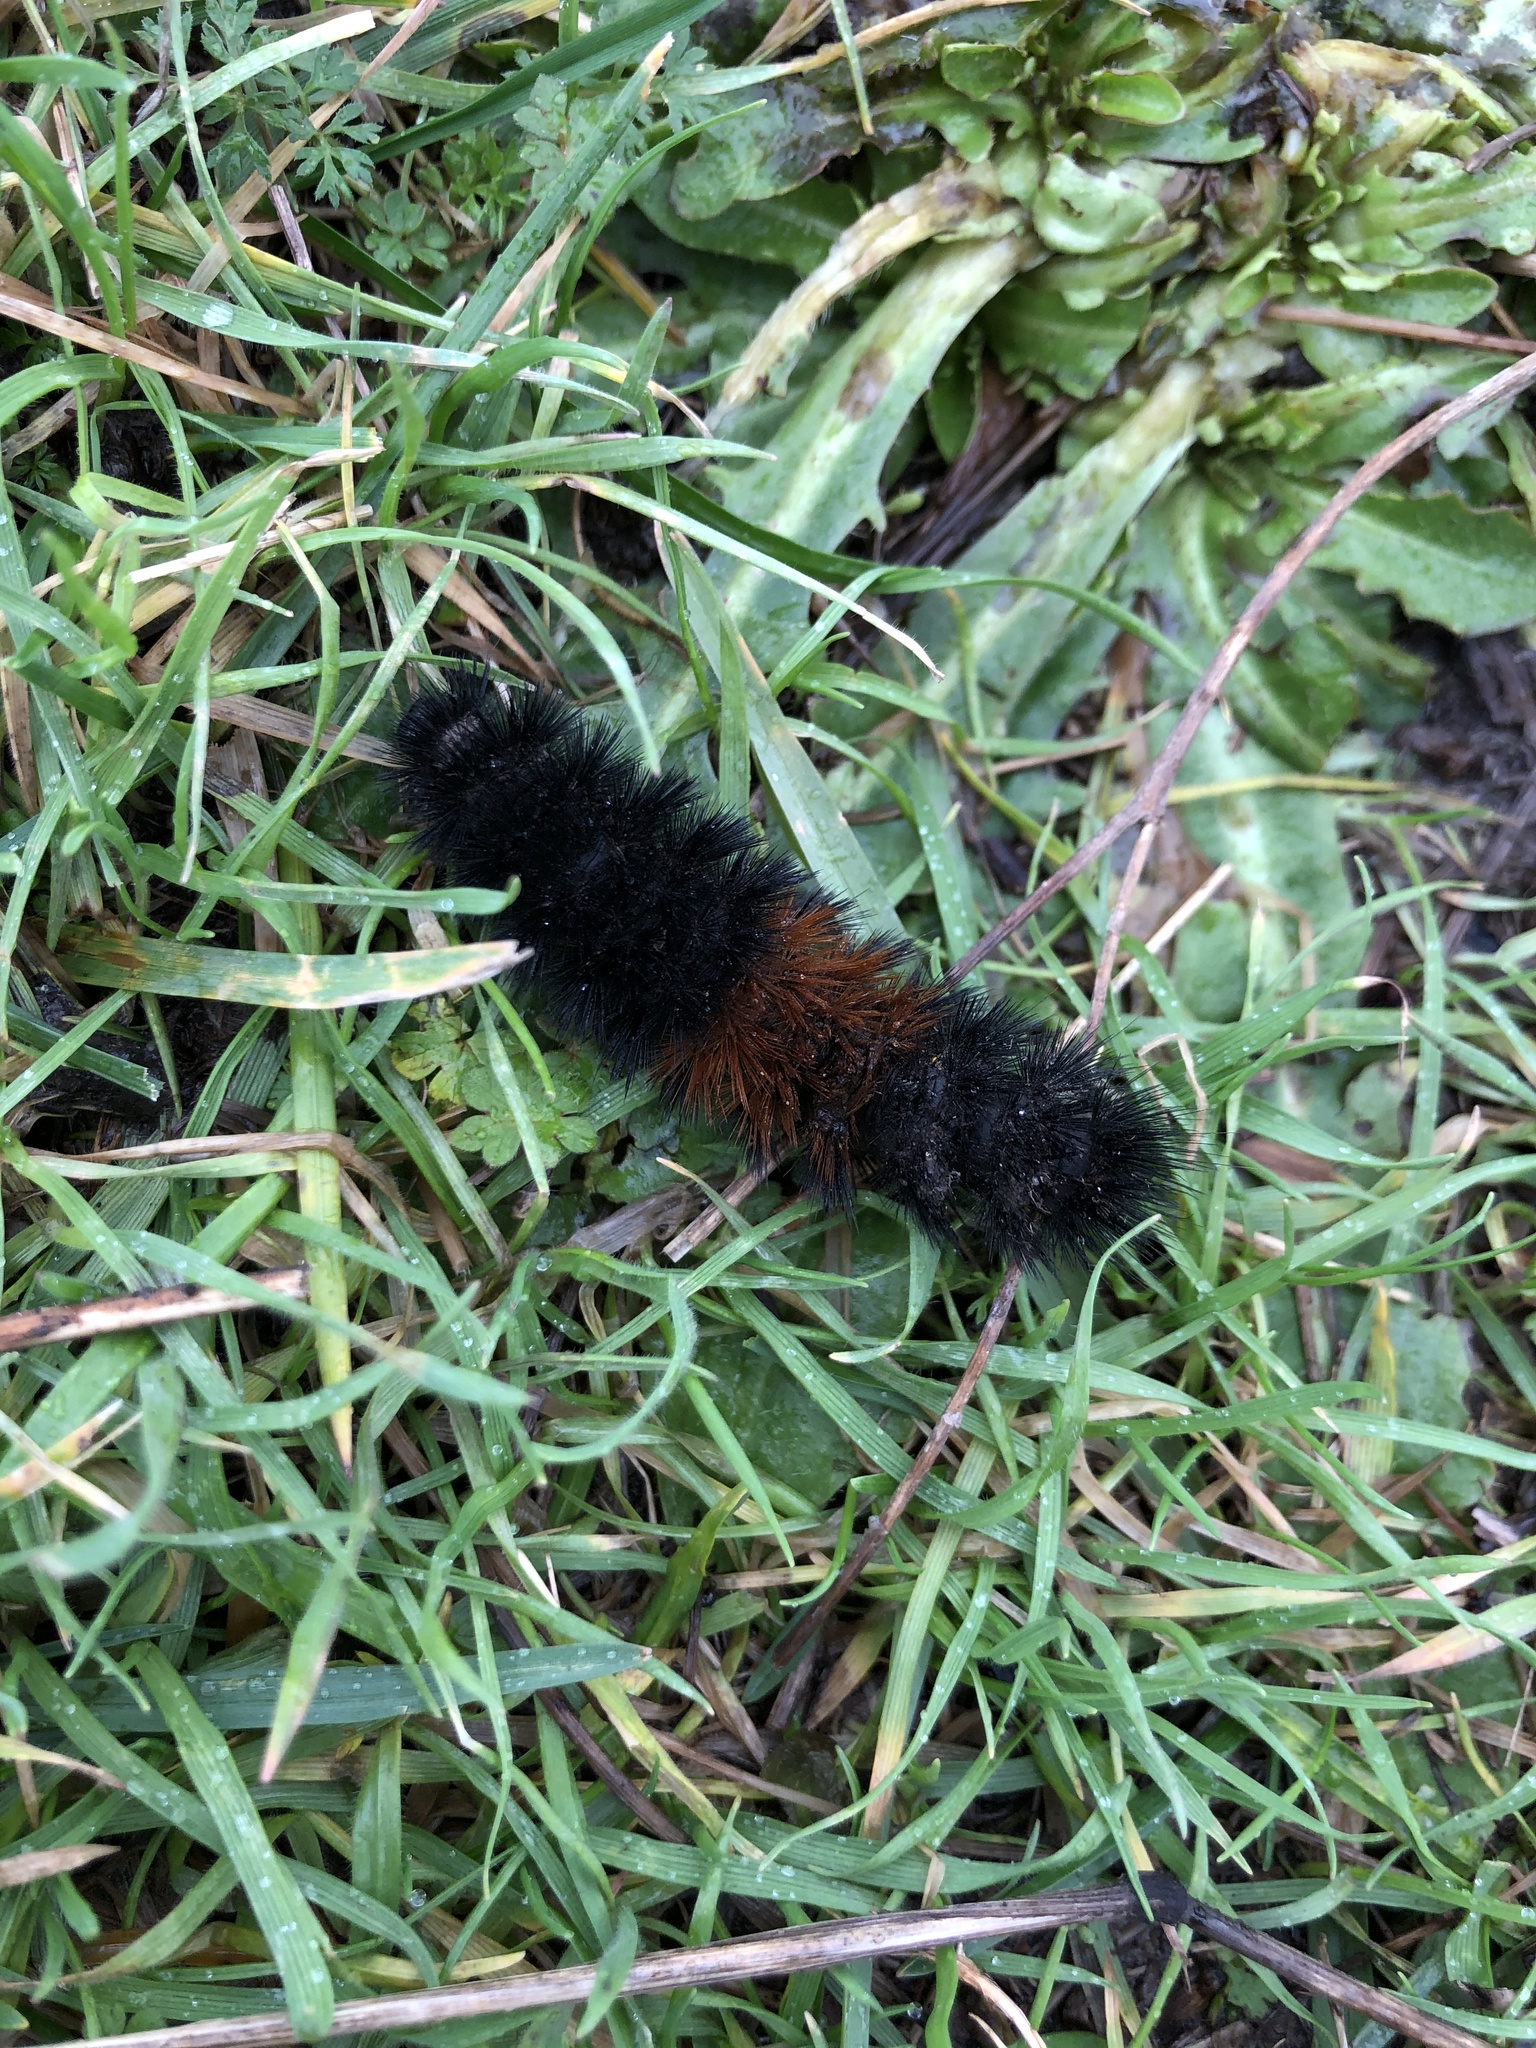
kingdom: Animalia
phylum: Arthropoda
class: Insecta
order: Lepidoptera
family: Erebidae
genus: Pyrrharctia
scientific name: Pyrrharctia isabella
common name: Isabella tiger moth
